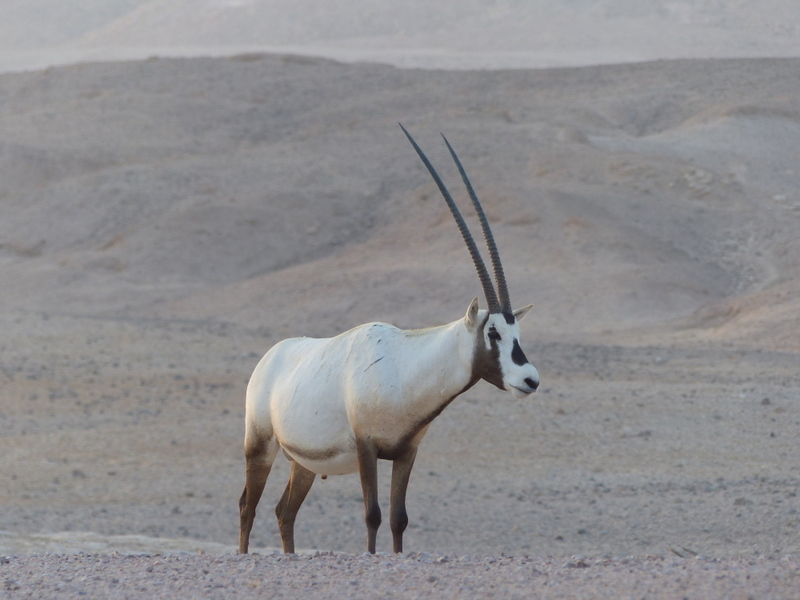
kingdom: Animalia
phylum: Chordata
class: Mammalia
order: Artiodactyla
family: Bovidae
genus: Oryx
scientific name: Oryx leucoryx
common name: Arabian oryx
